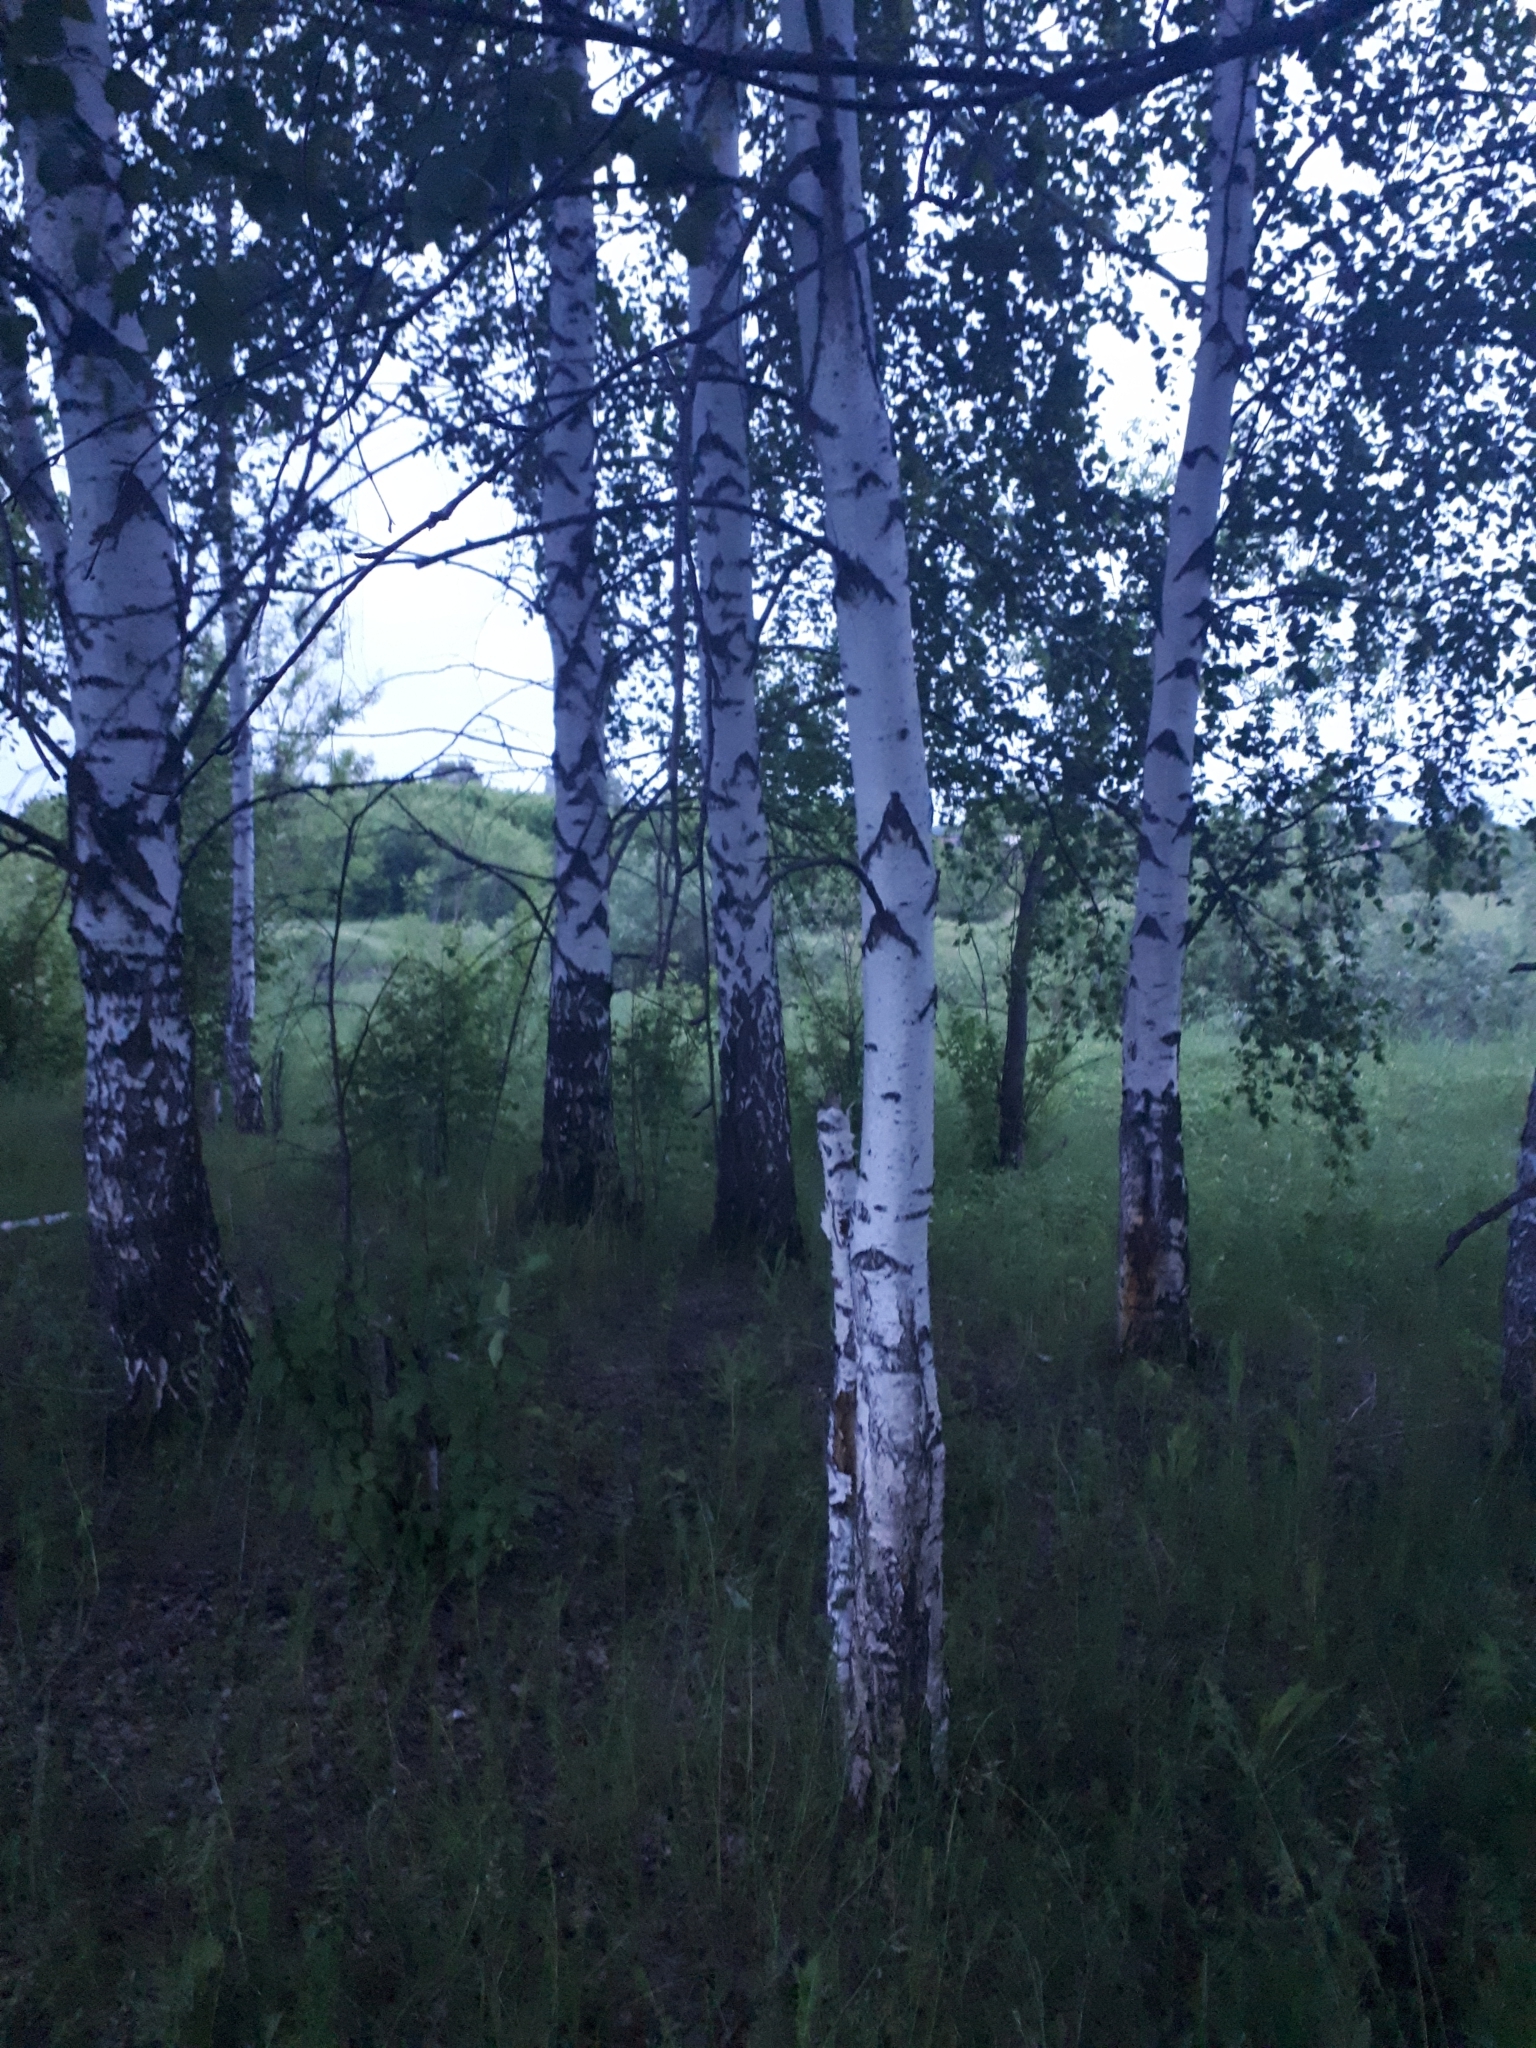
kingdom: Plantae
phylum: Tracheophyta
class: Magnoliopsida
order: Fagales
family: Betulaceae
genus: Betula
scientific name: Betula pendula
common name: Silver birch
